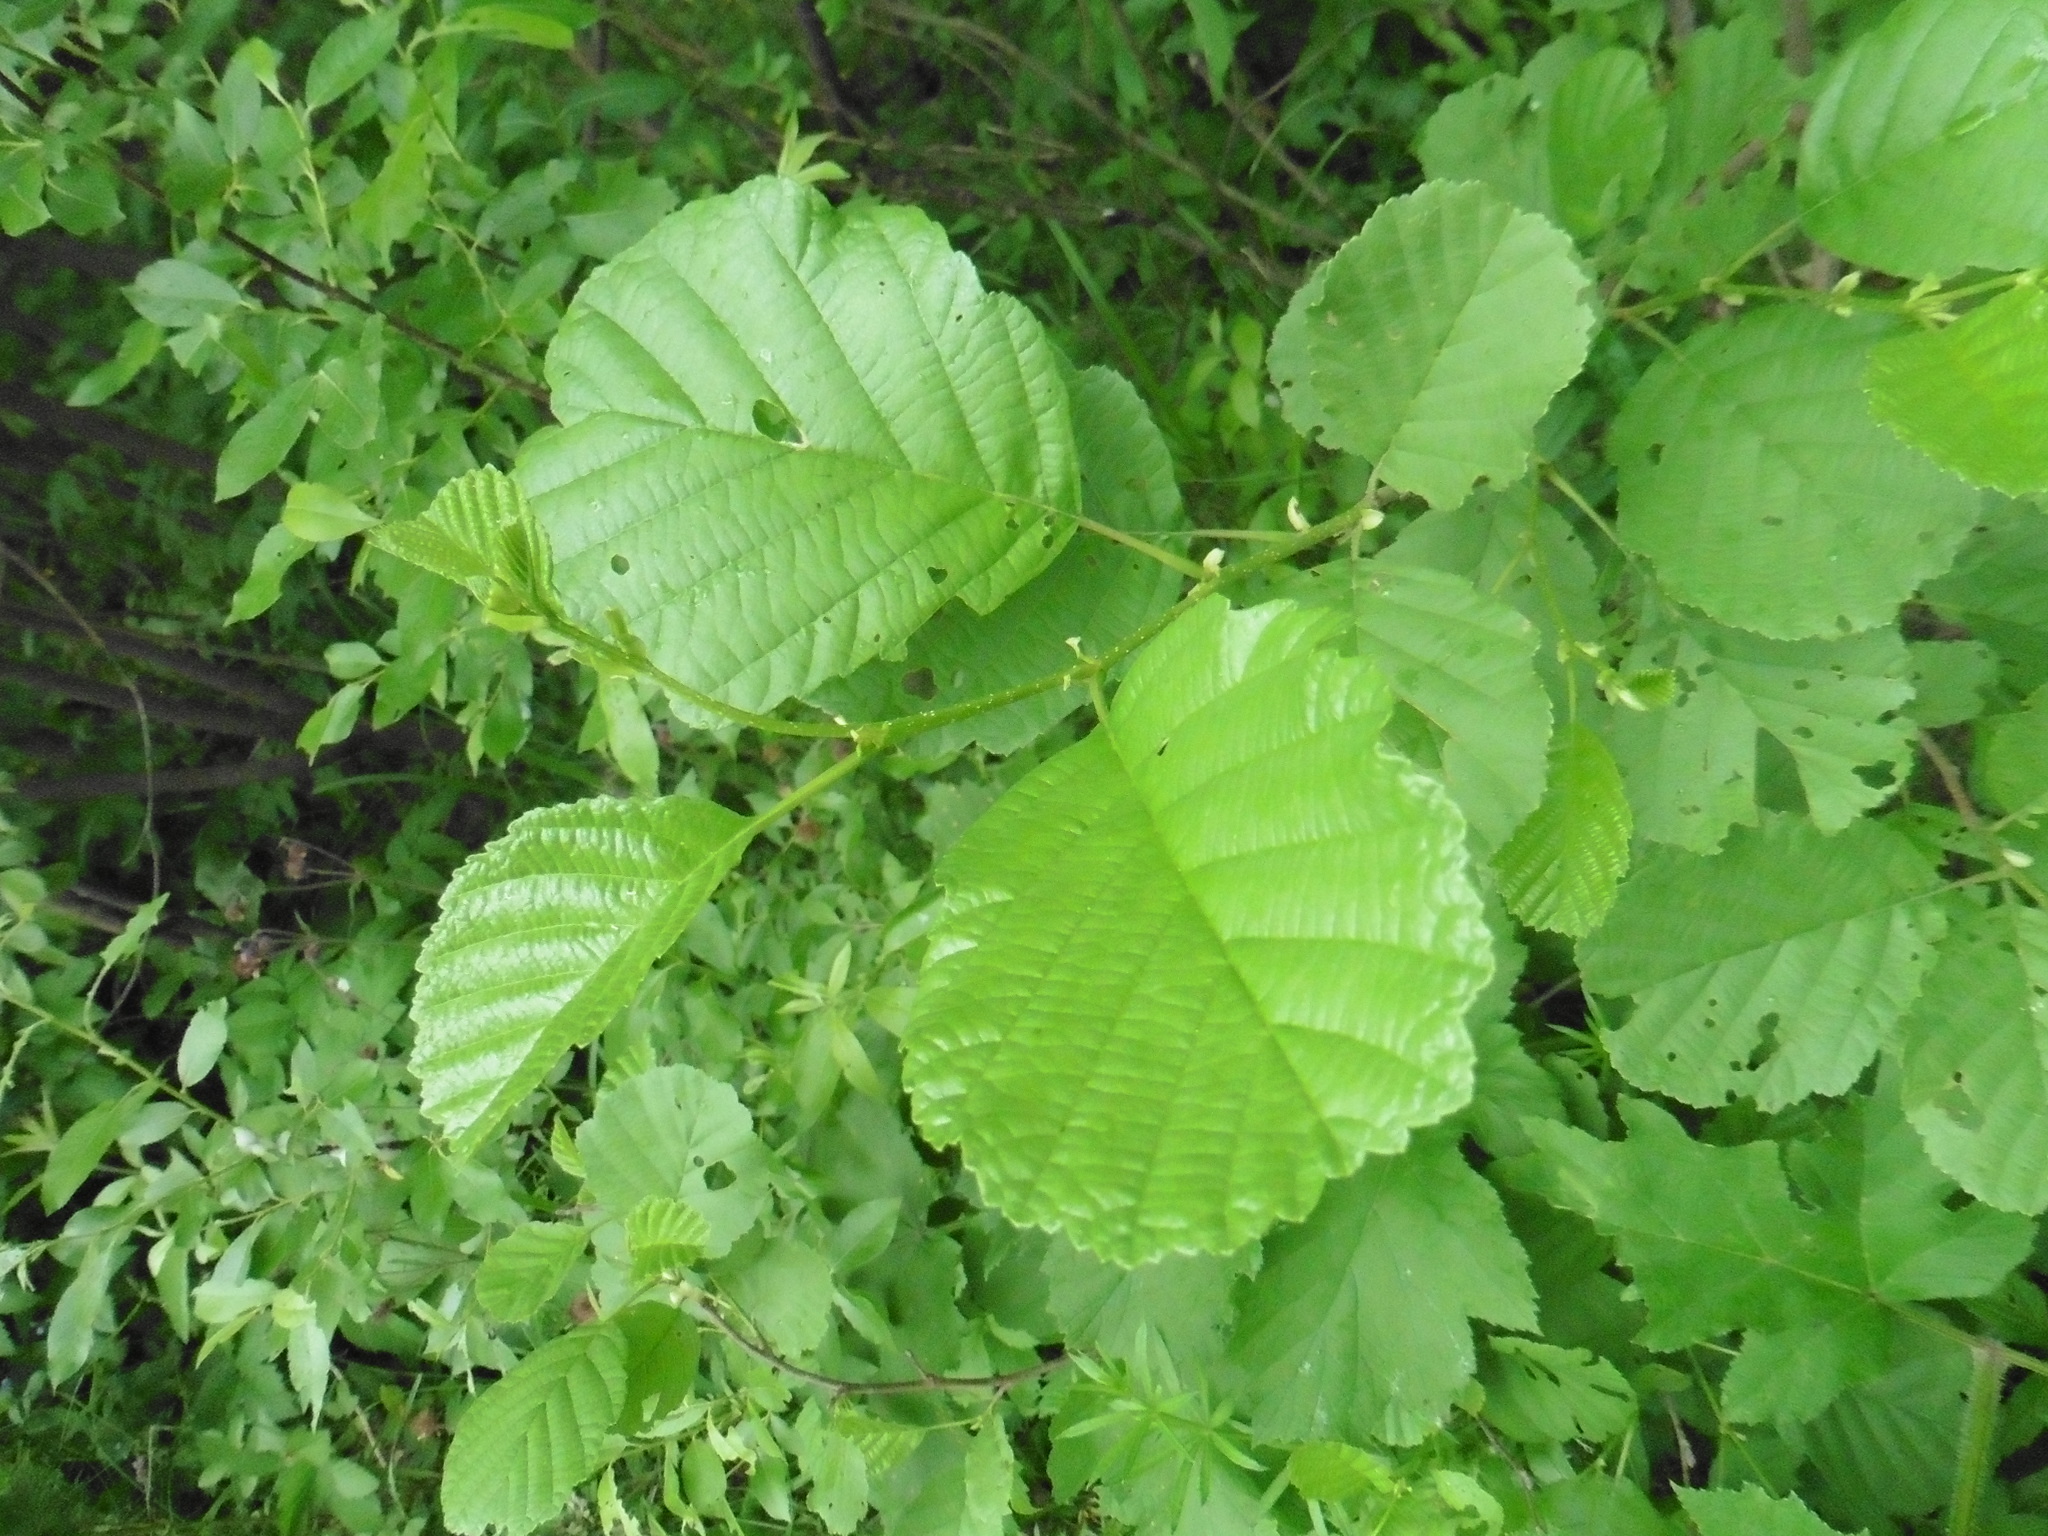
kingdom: Plantae
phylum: Tracheophyta
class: Magnoliopsida
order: Fagales
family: Betulaceae
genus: Alnus
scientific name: Alnus glutinosa
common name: Black alder
